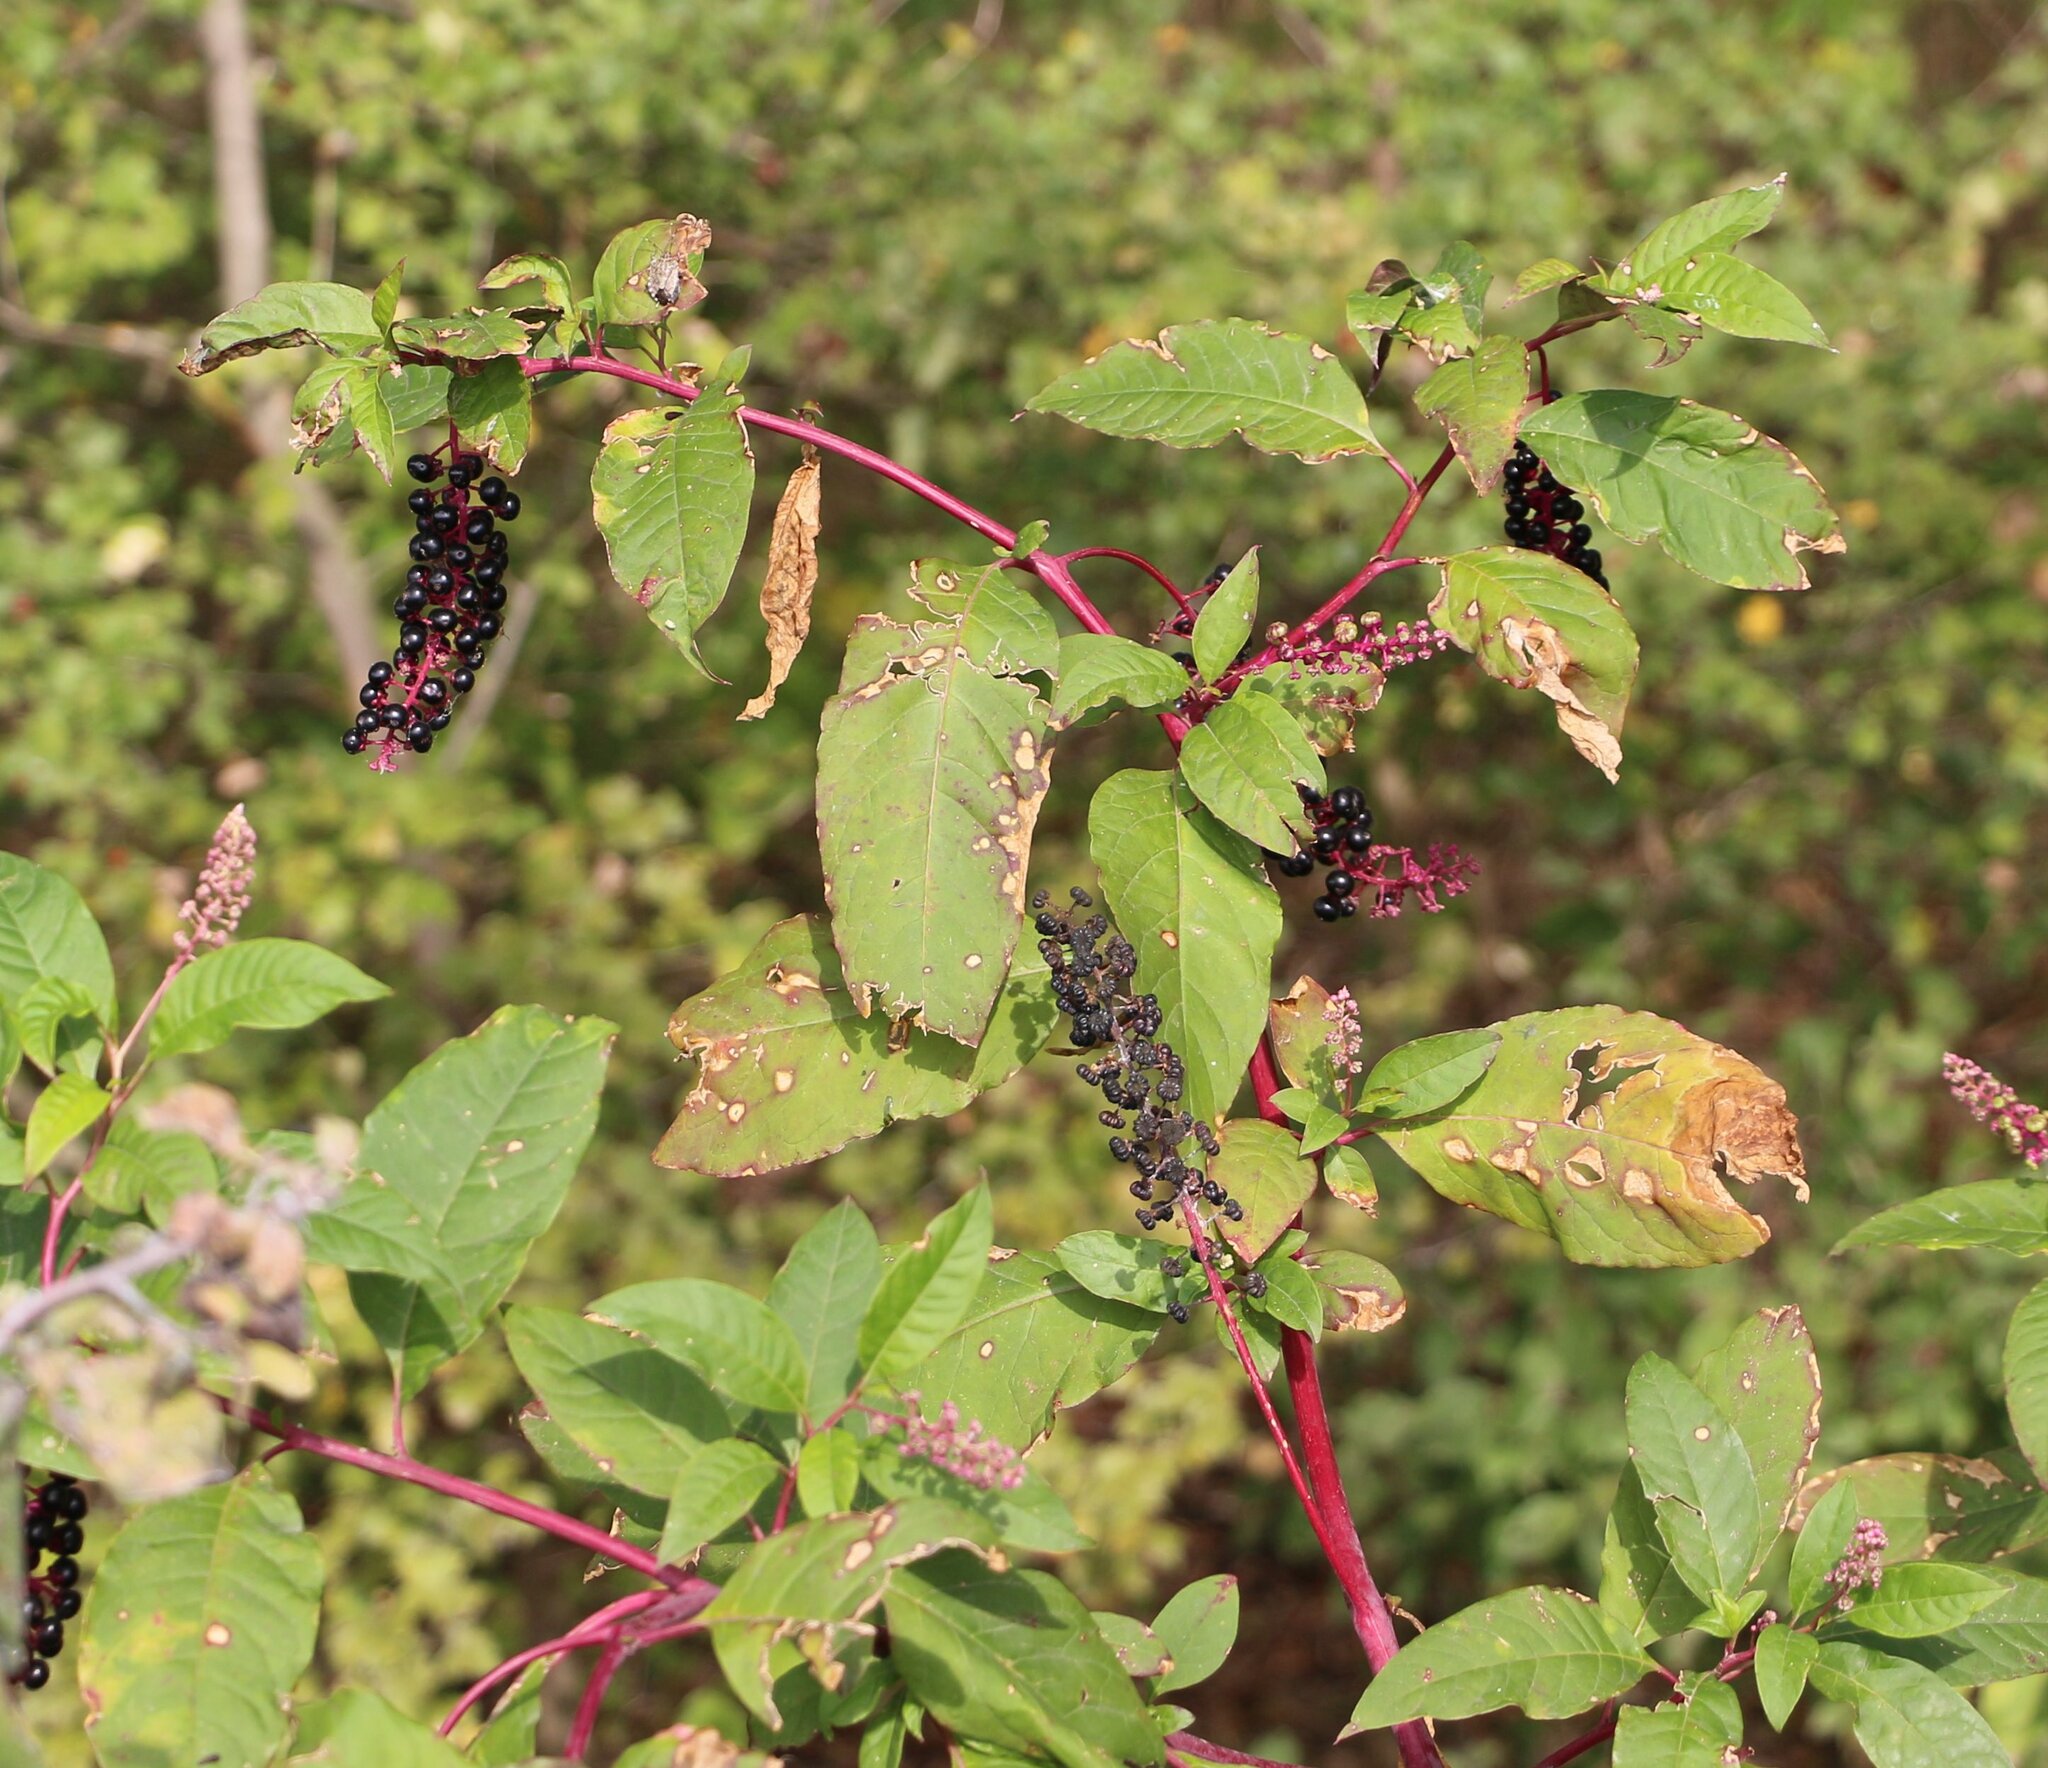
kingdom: Plantae
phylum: Tracheophyta
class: Magnoliopsida
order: Caryophyllales
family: Phytolaccaceae
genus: Phytolacca
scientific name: Phytolacca americana
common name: American pokeweed
